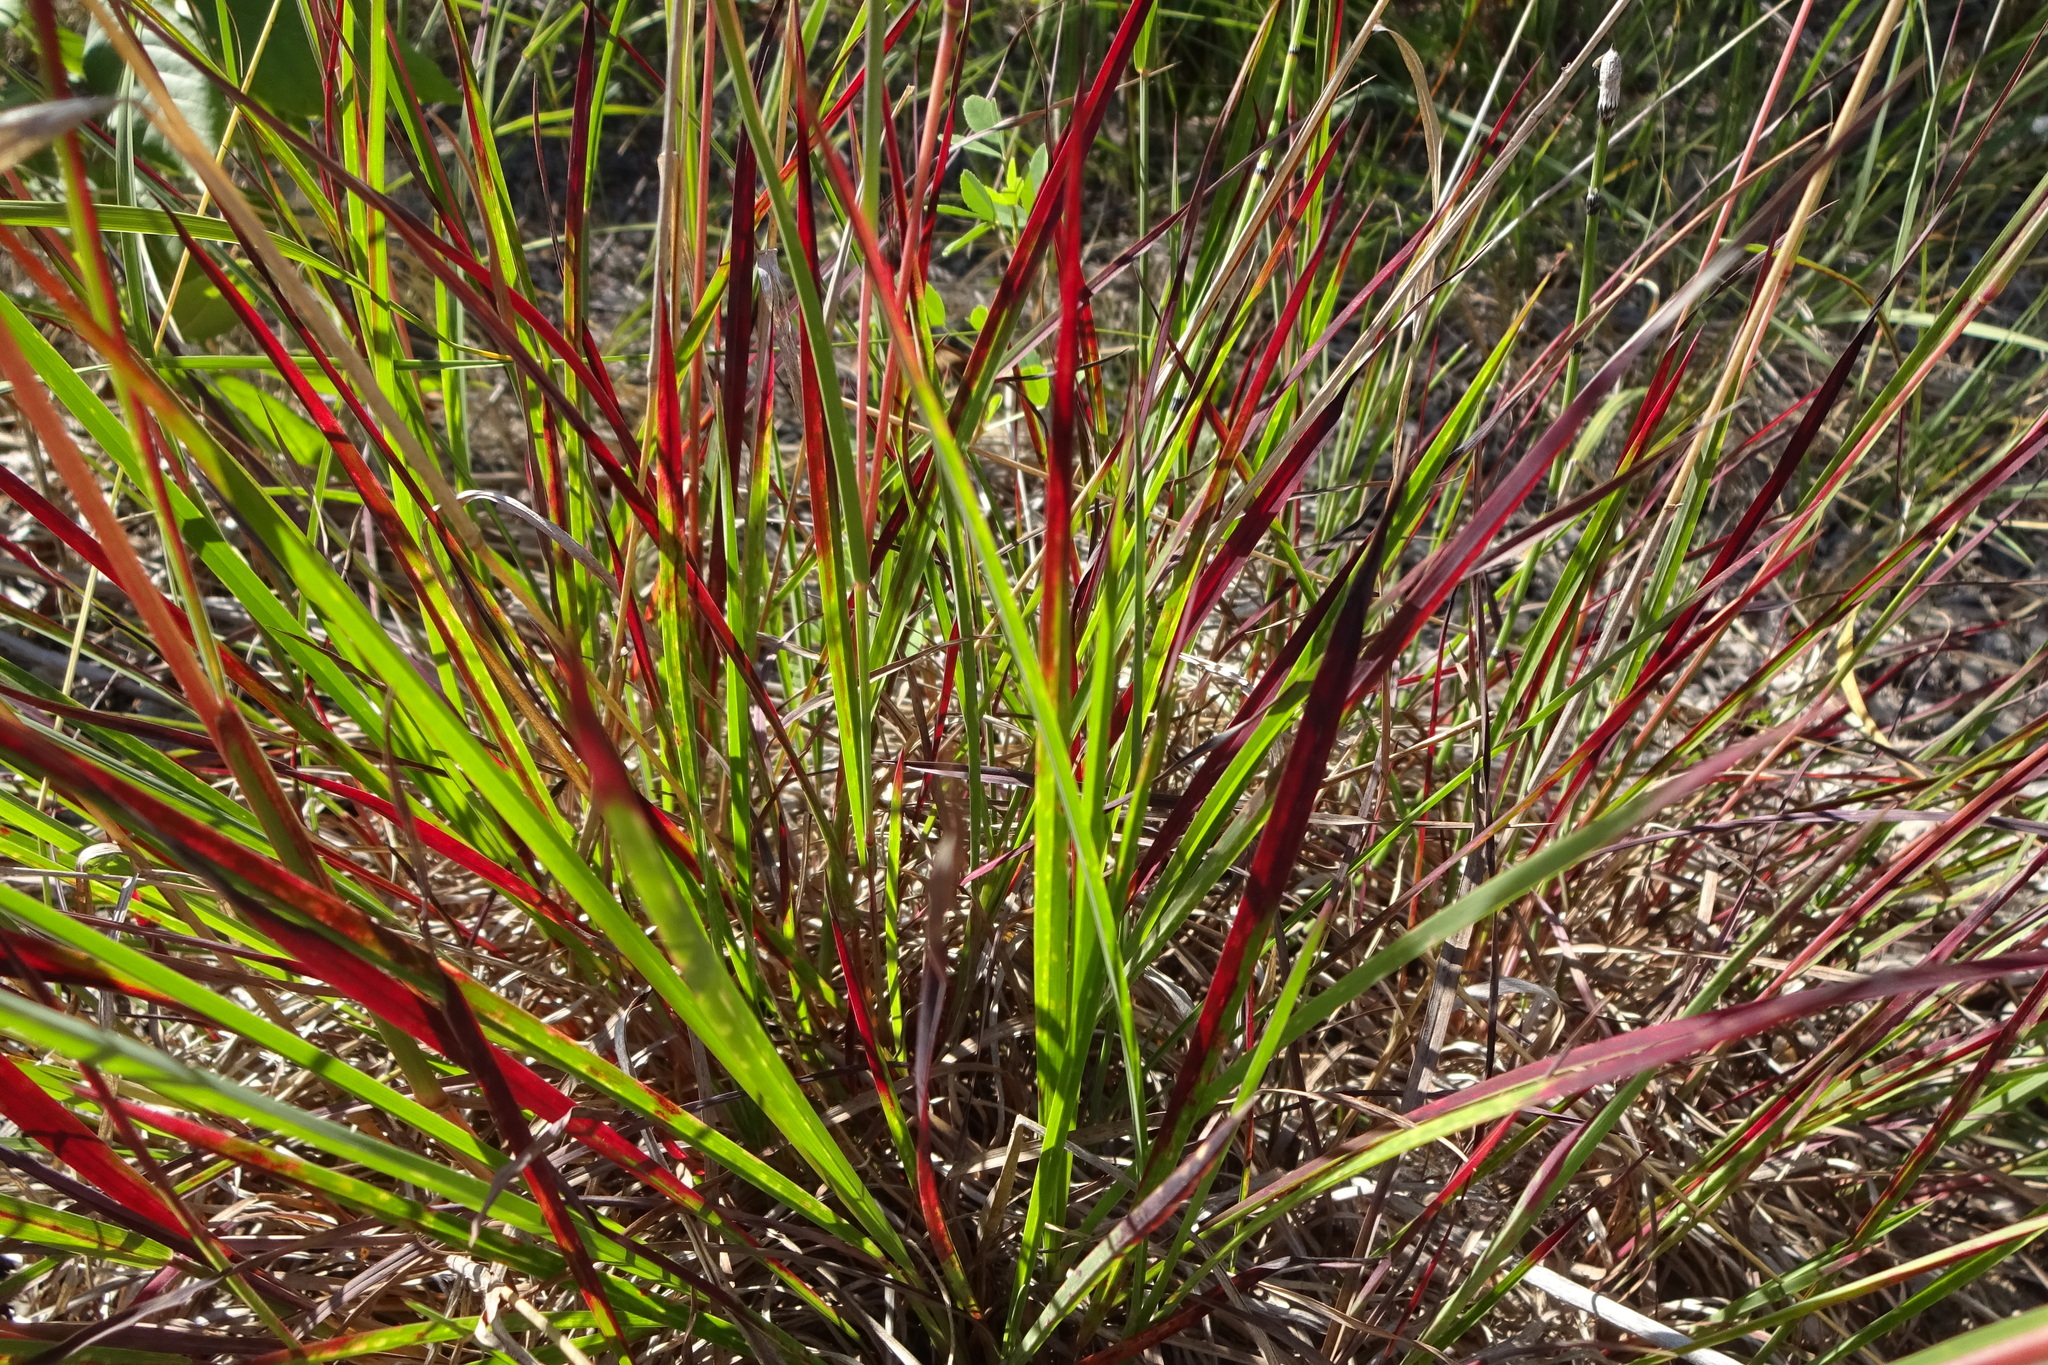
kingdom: Plantae
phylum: Tracheophyta
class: Liliopsida
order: Poales
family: Poaceae
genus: Schizachyrium
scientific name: Schizachyrium scoparium
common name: Little bluestem
